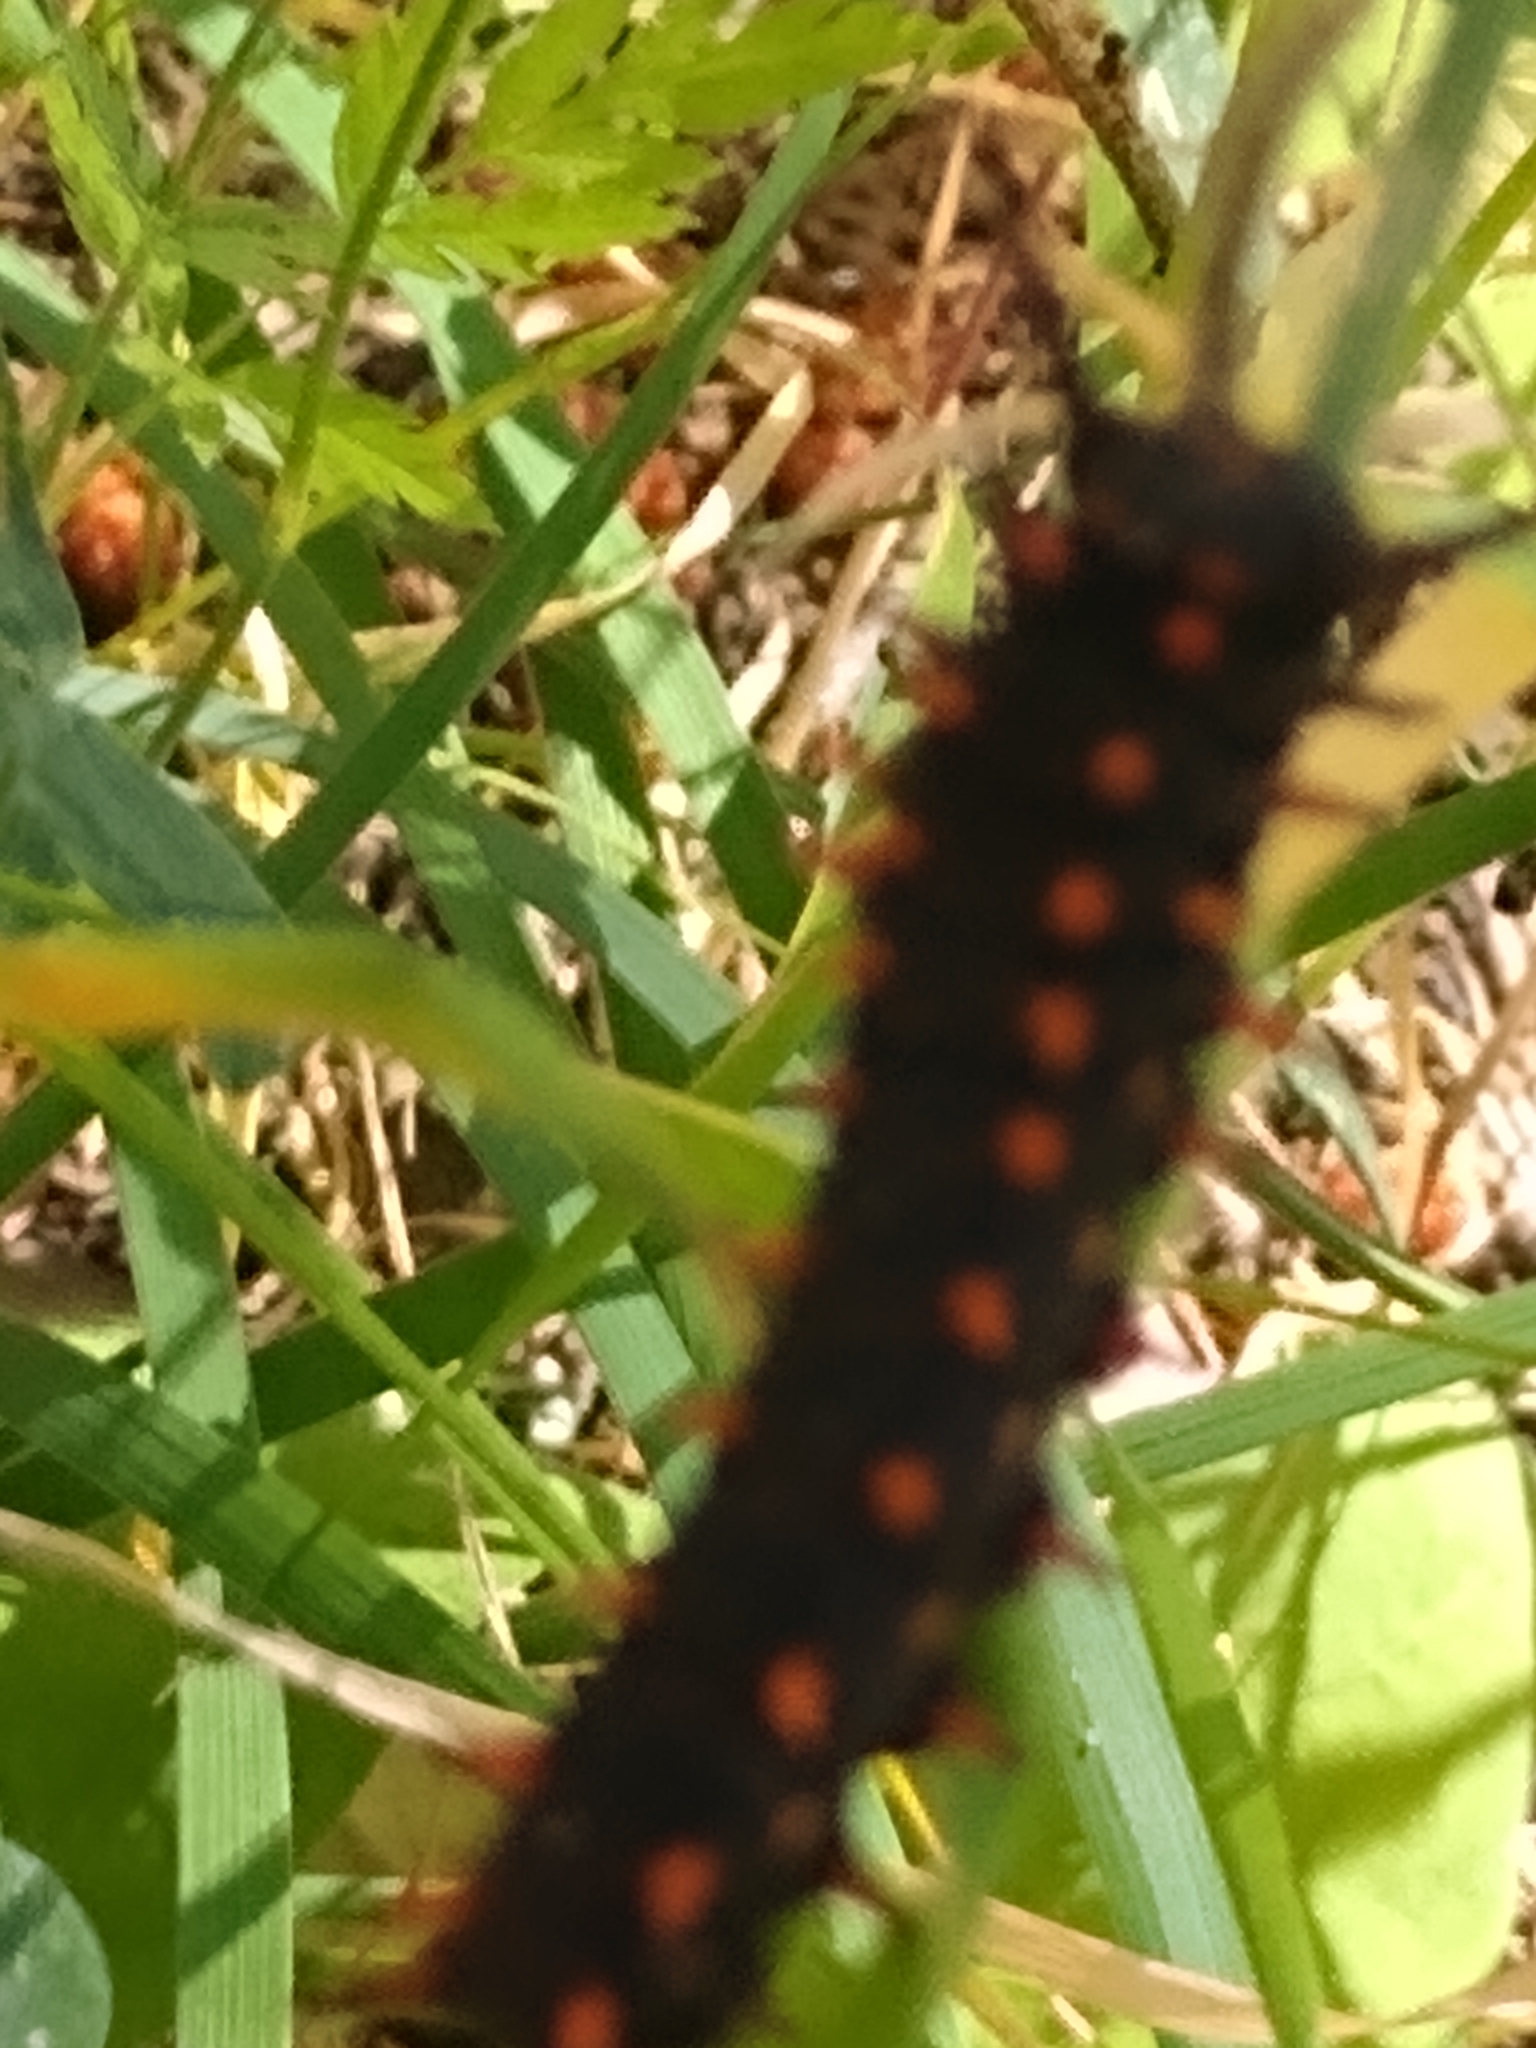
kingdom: Animalia
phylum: Arthropoda
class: Insecta
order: Lepidoptera
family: Papilionidae
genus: Battus
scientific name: Battus philenor
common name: Pipevine swallowtail
